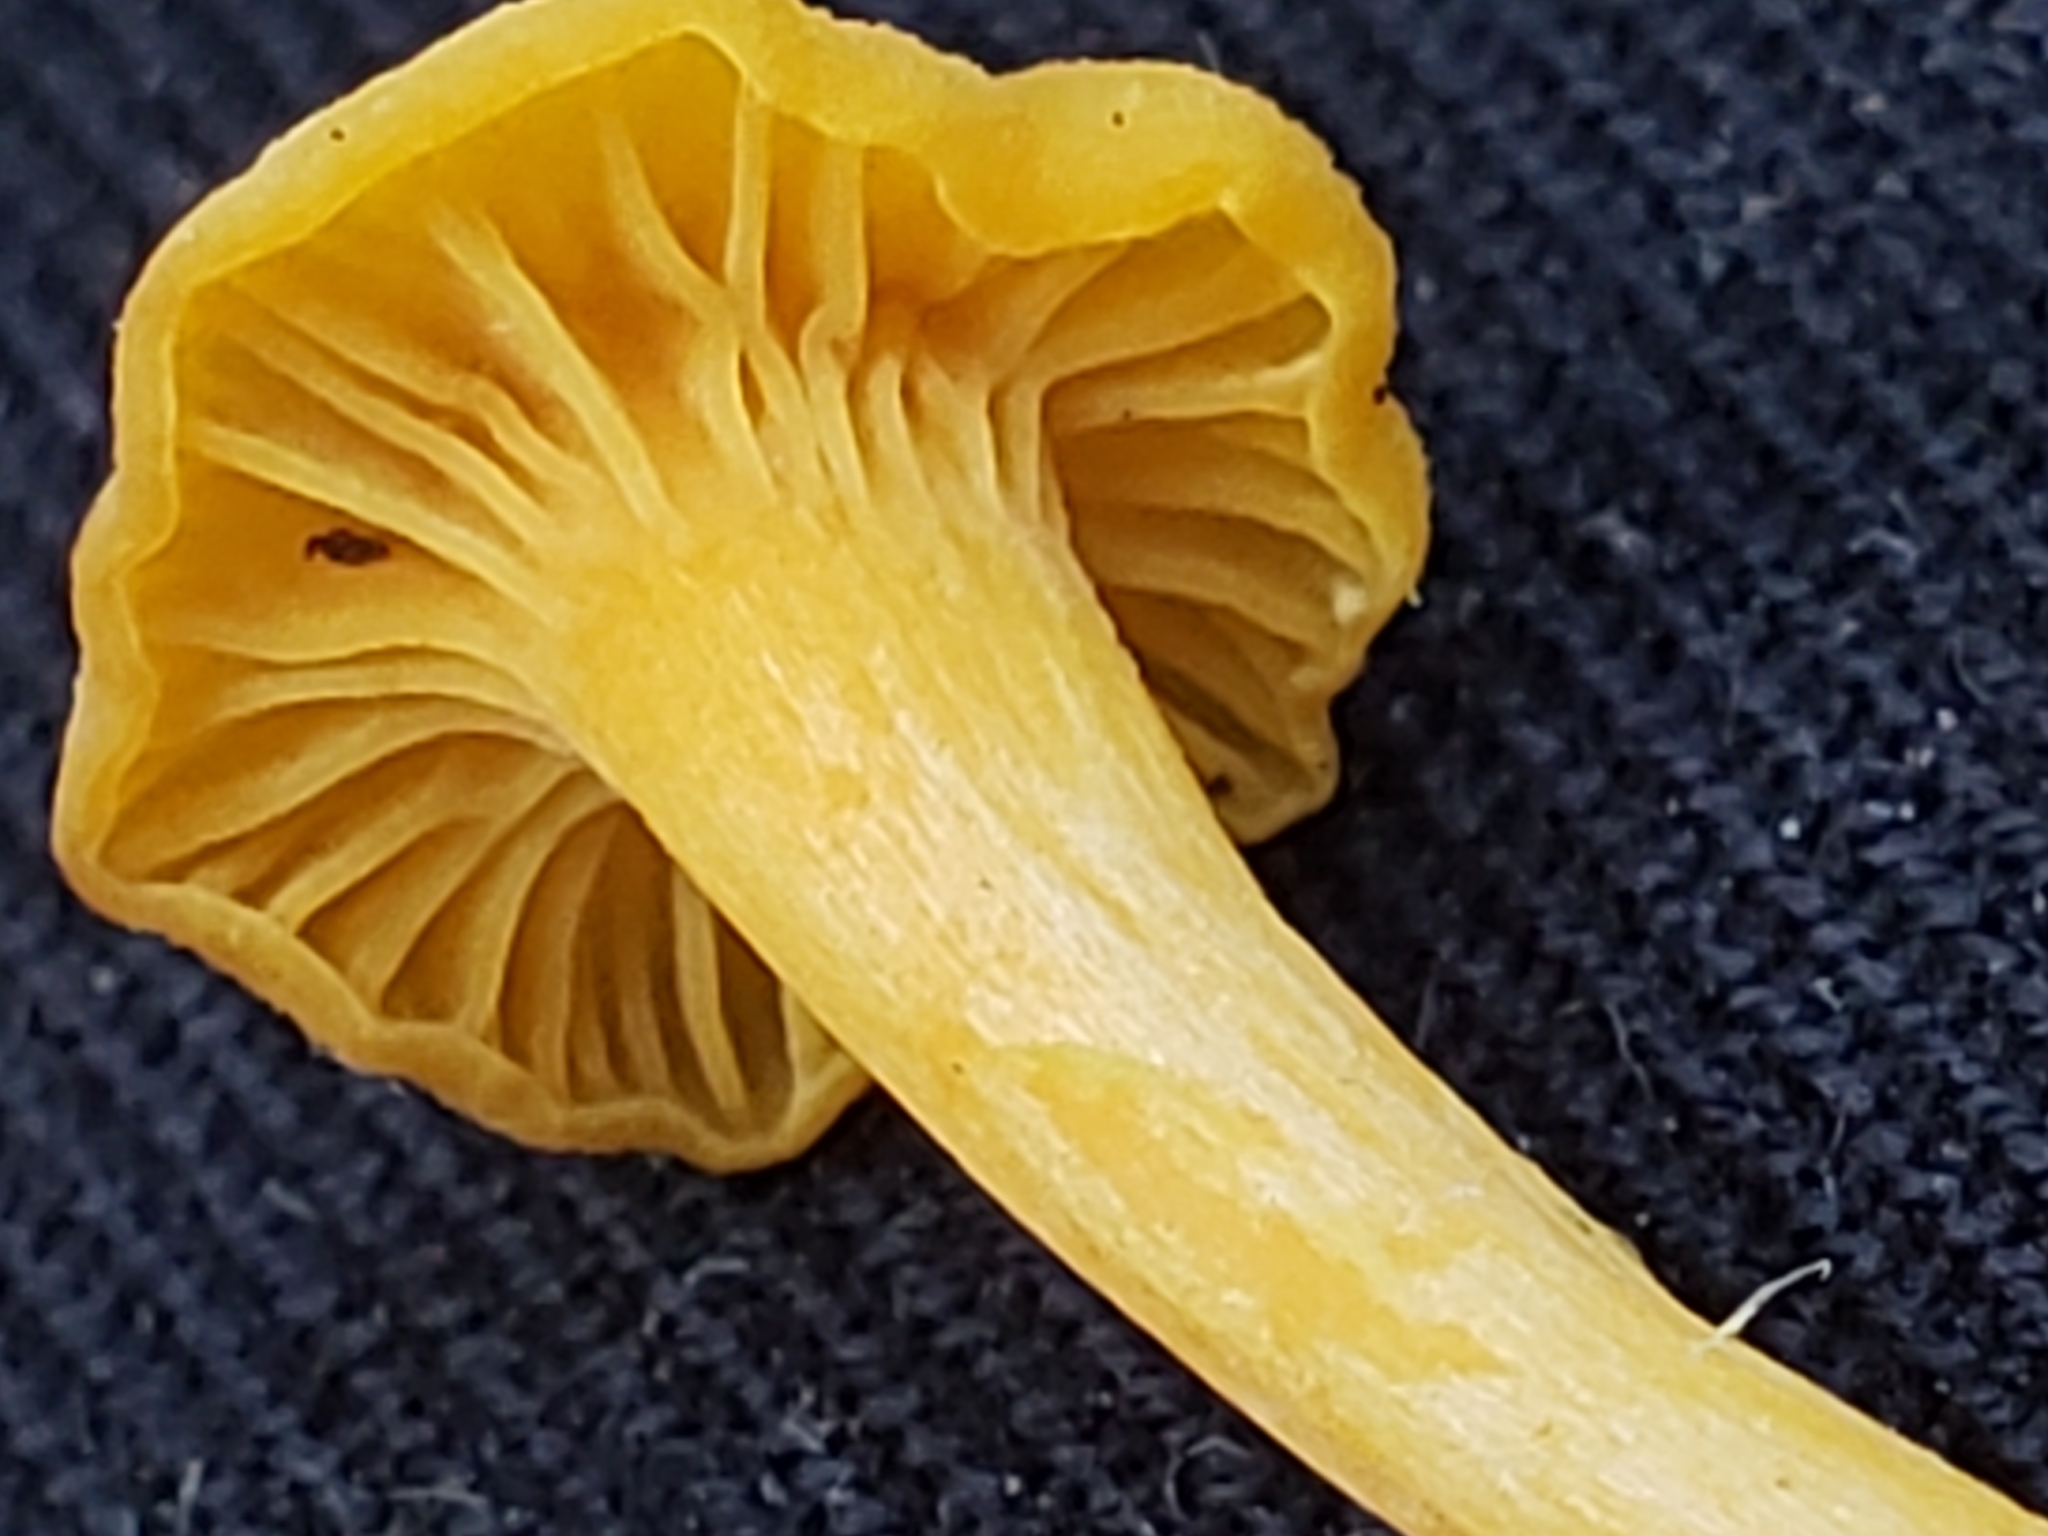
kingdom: Fungi
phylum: Basidiomycota
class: Agaricomycetes
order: Cantharellales
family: Hydnaceae
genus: Cantharellus
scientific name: Cantharellus minor
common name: Small chanterelle
